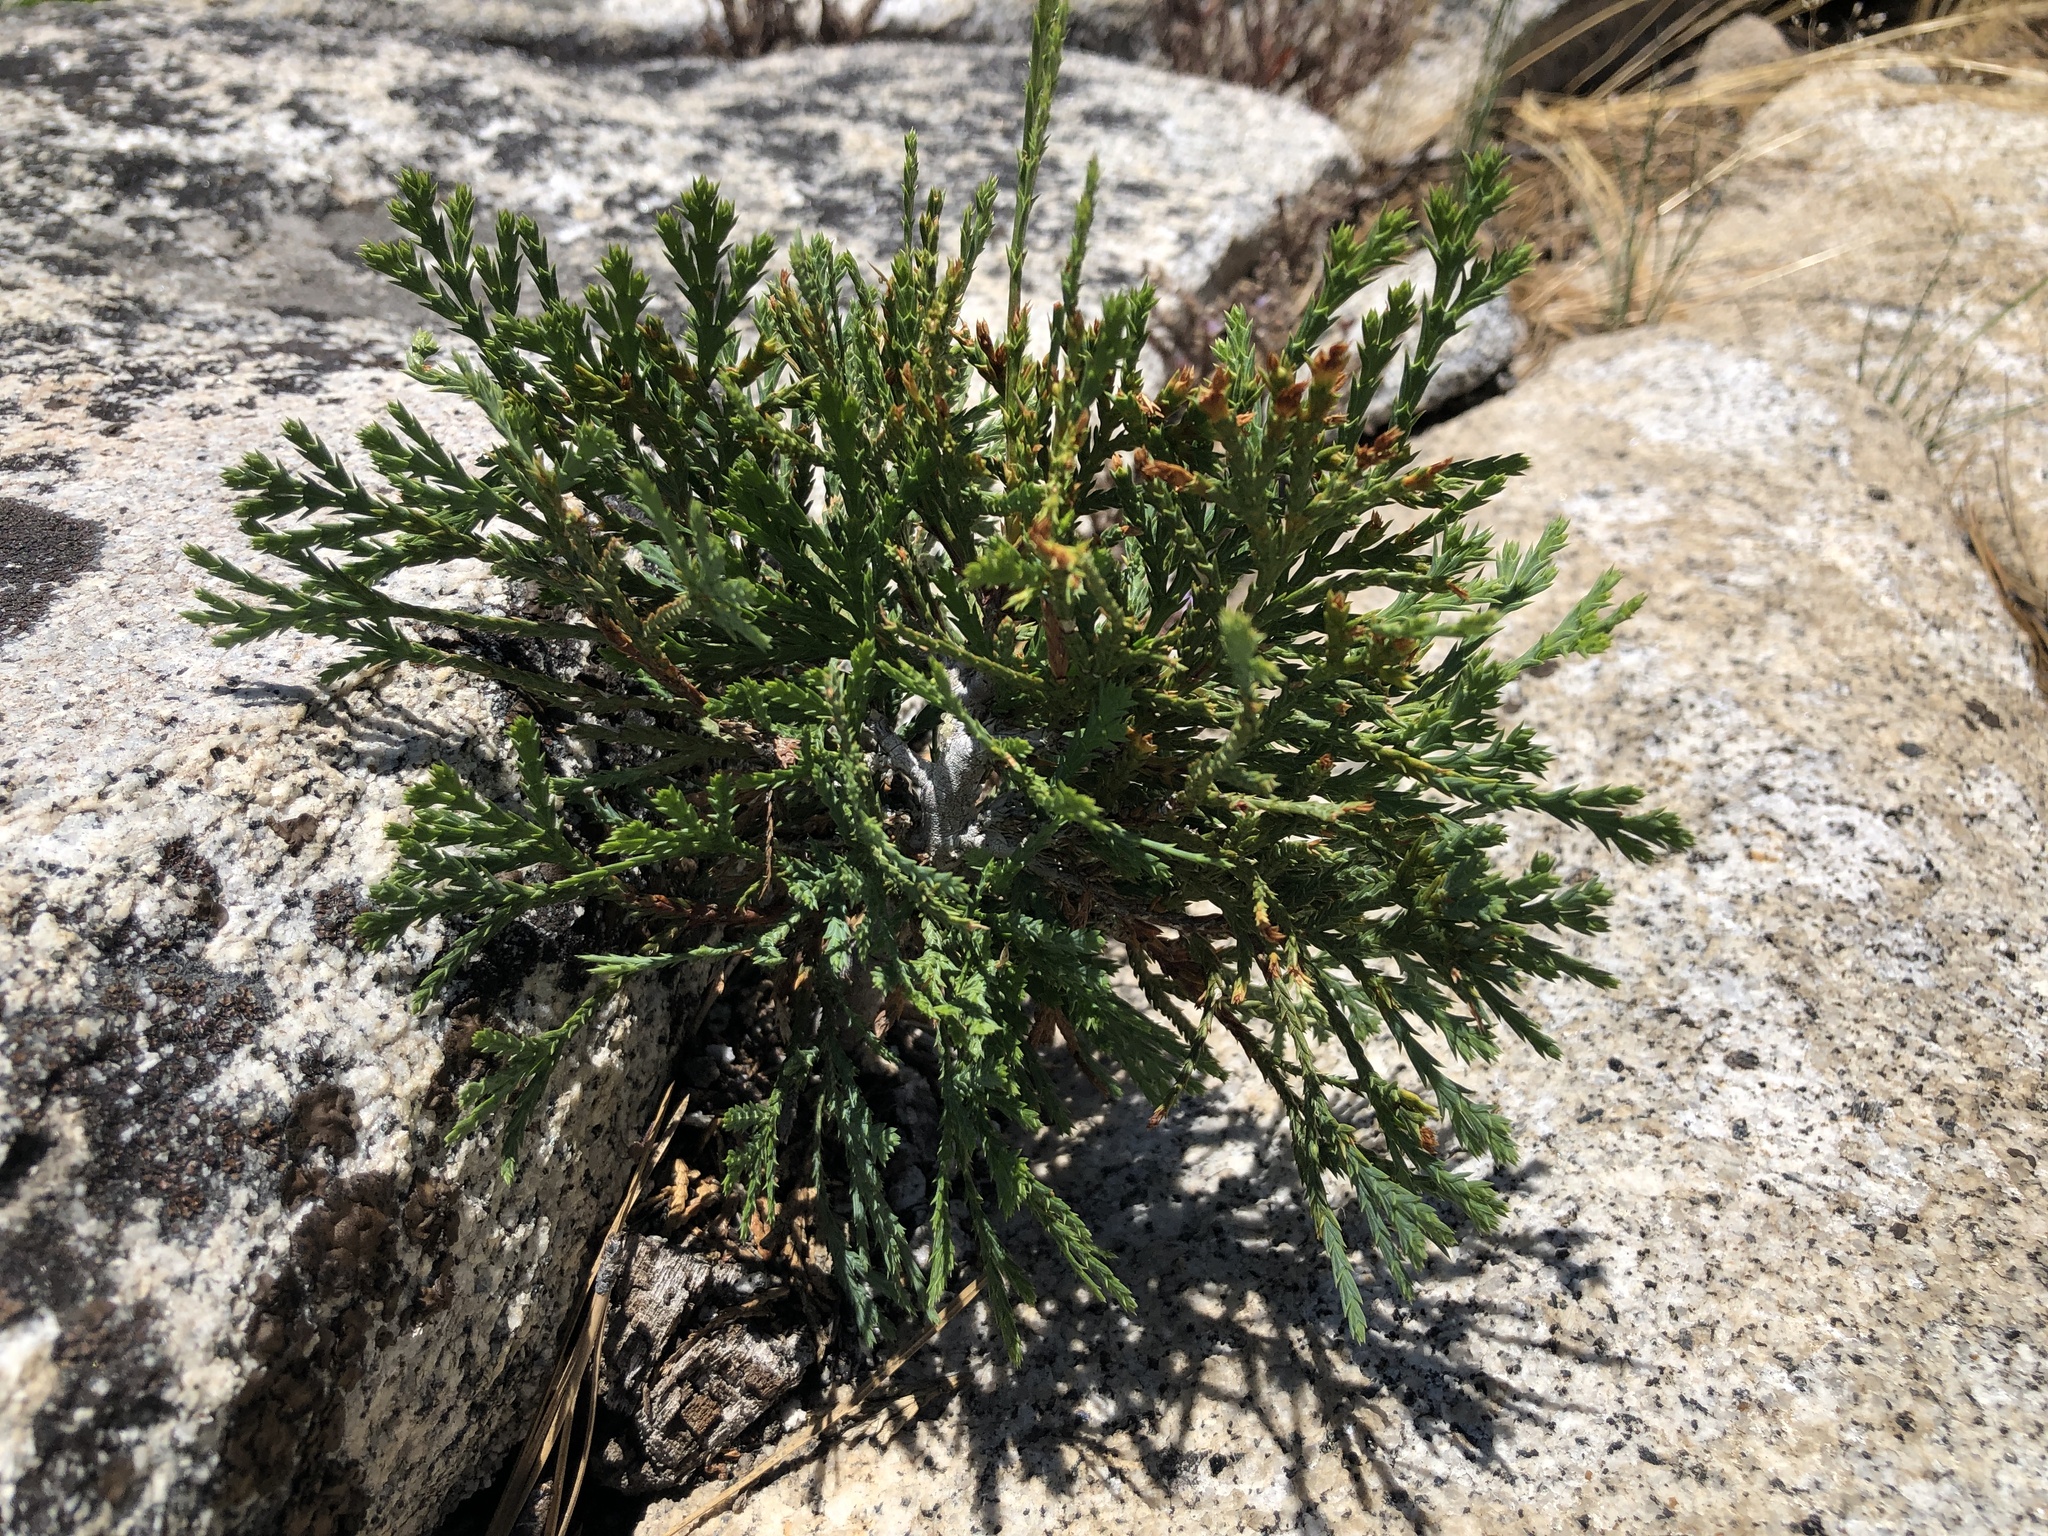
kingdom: Plantae
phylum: Tracheophyta
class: Pinopsida
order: Pinales
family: Cupressaceae
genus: Calocedrus
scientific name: Calocedrus decurrens
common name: Californian incense-cedar
